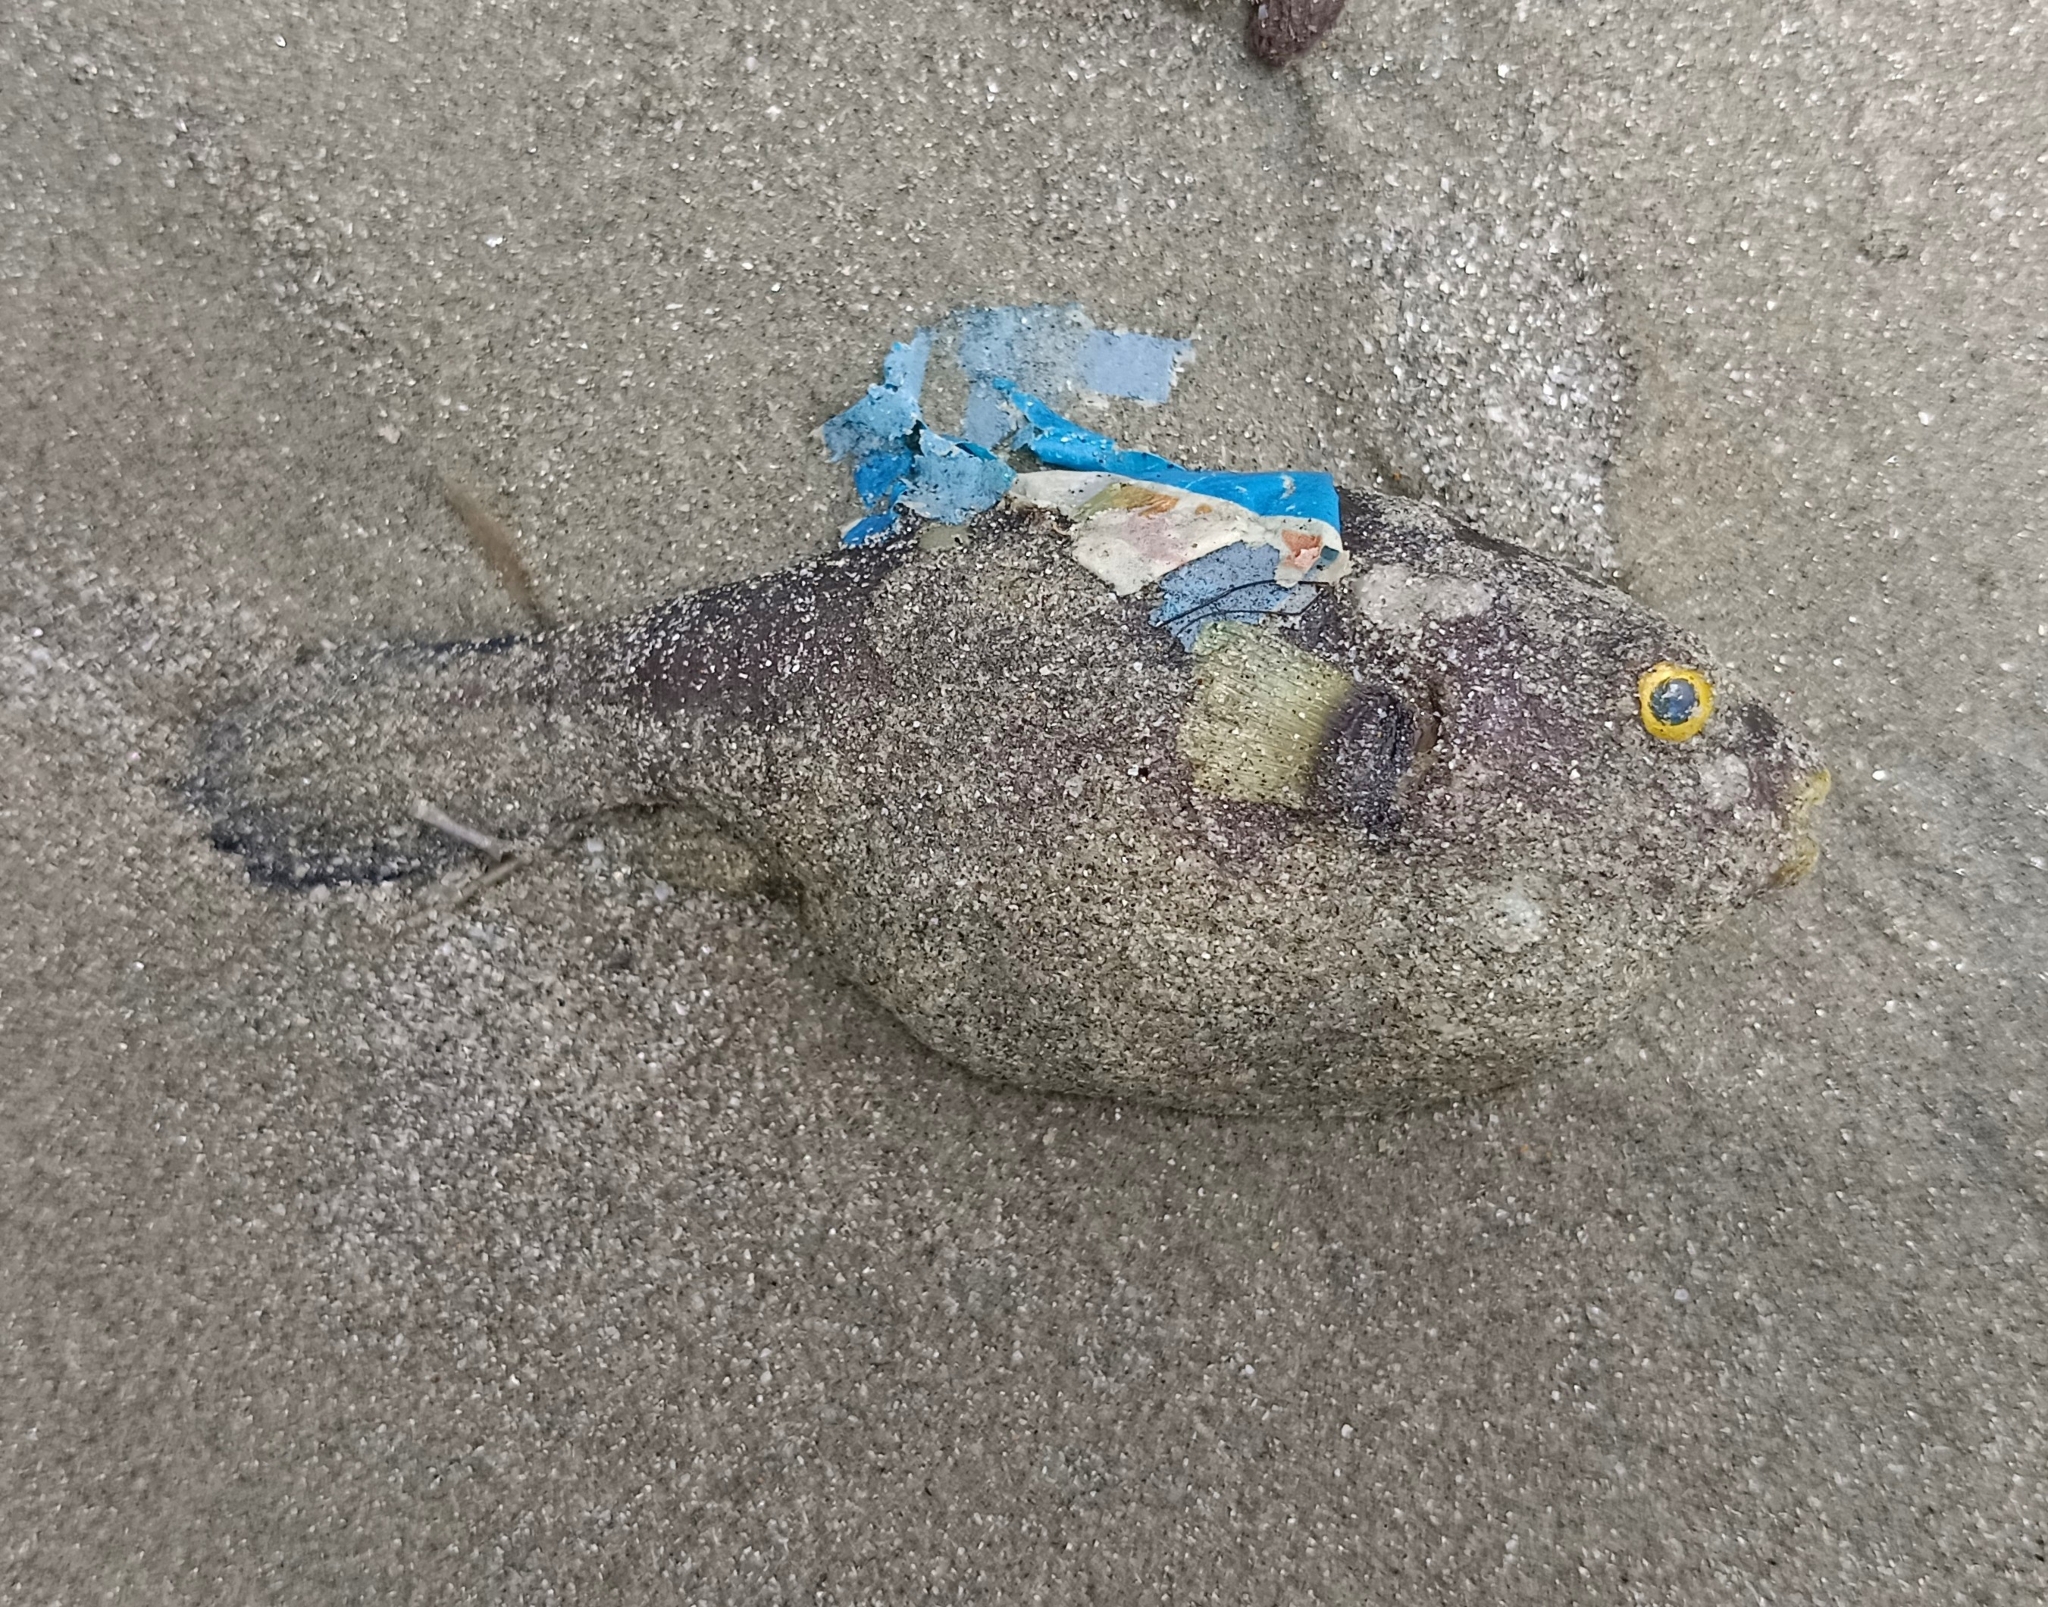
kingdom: Animalia
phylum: Chordata
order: Tetraodontiformes
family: Tetraodontidae
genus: Arothron
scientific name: Arothron immaculatus
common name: Blackedged blaasop
